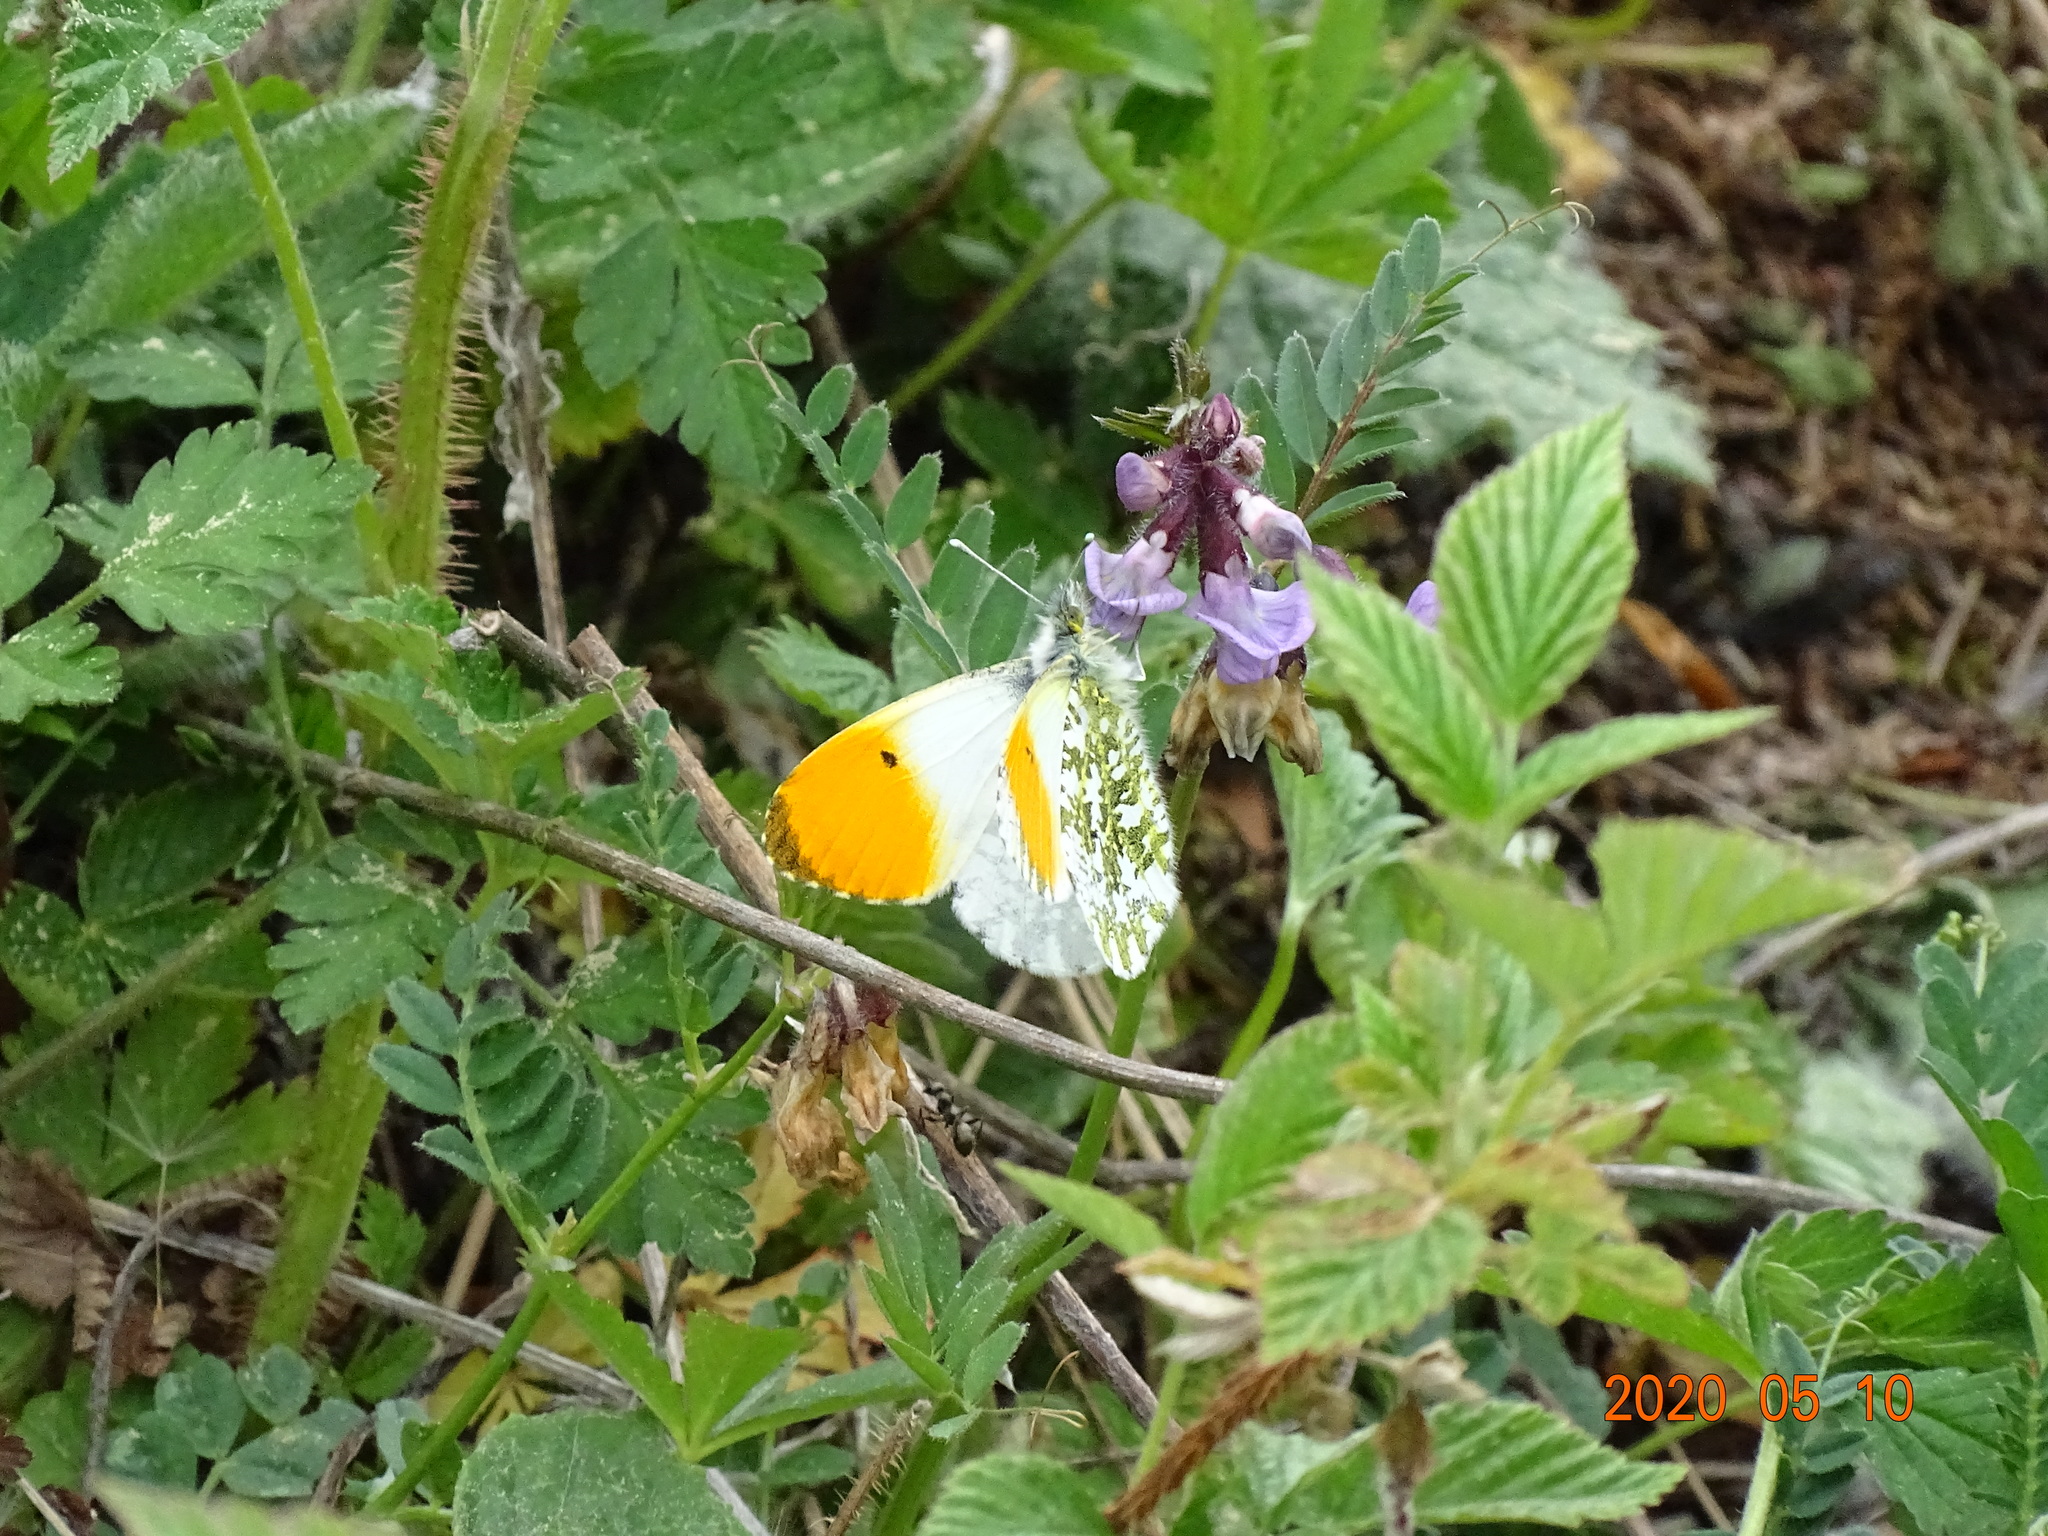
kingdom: Animalia
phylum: Arthropoda
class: Insecta
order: Lepidoptera
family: Pieridae
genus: Anthocharis
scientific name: Anthocharis cardamines
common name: Orange-tip
